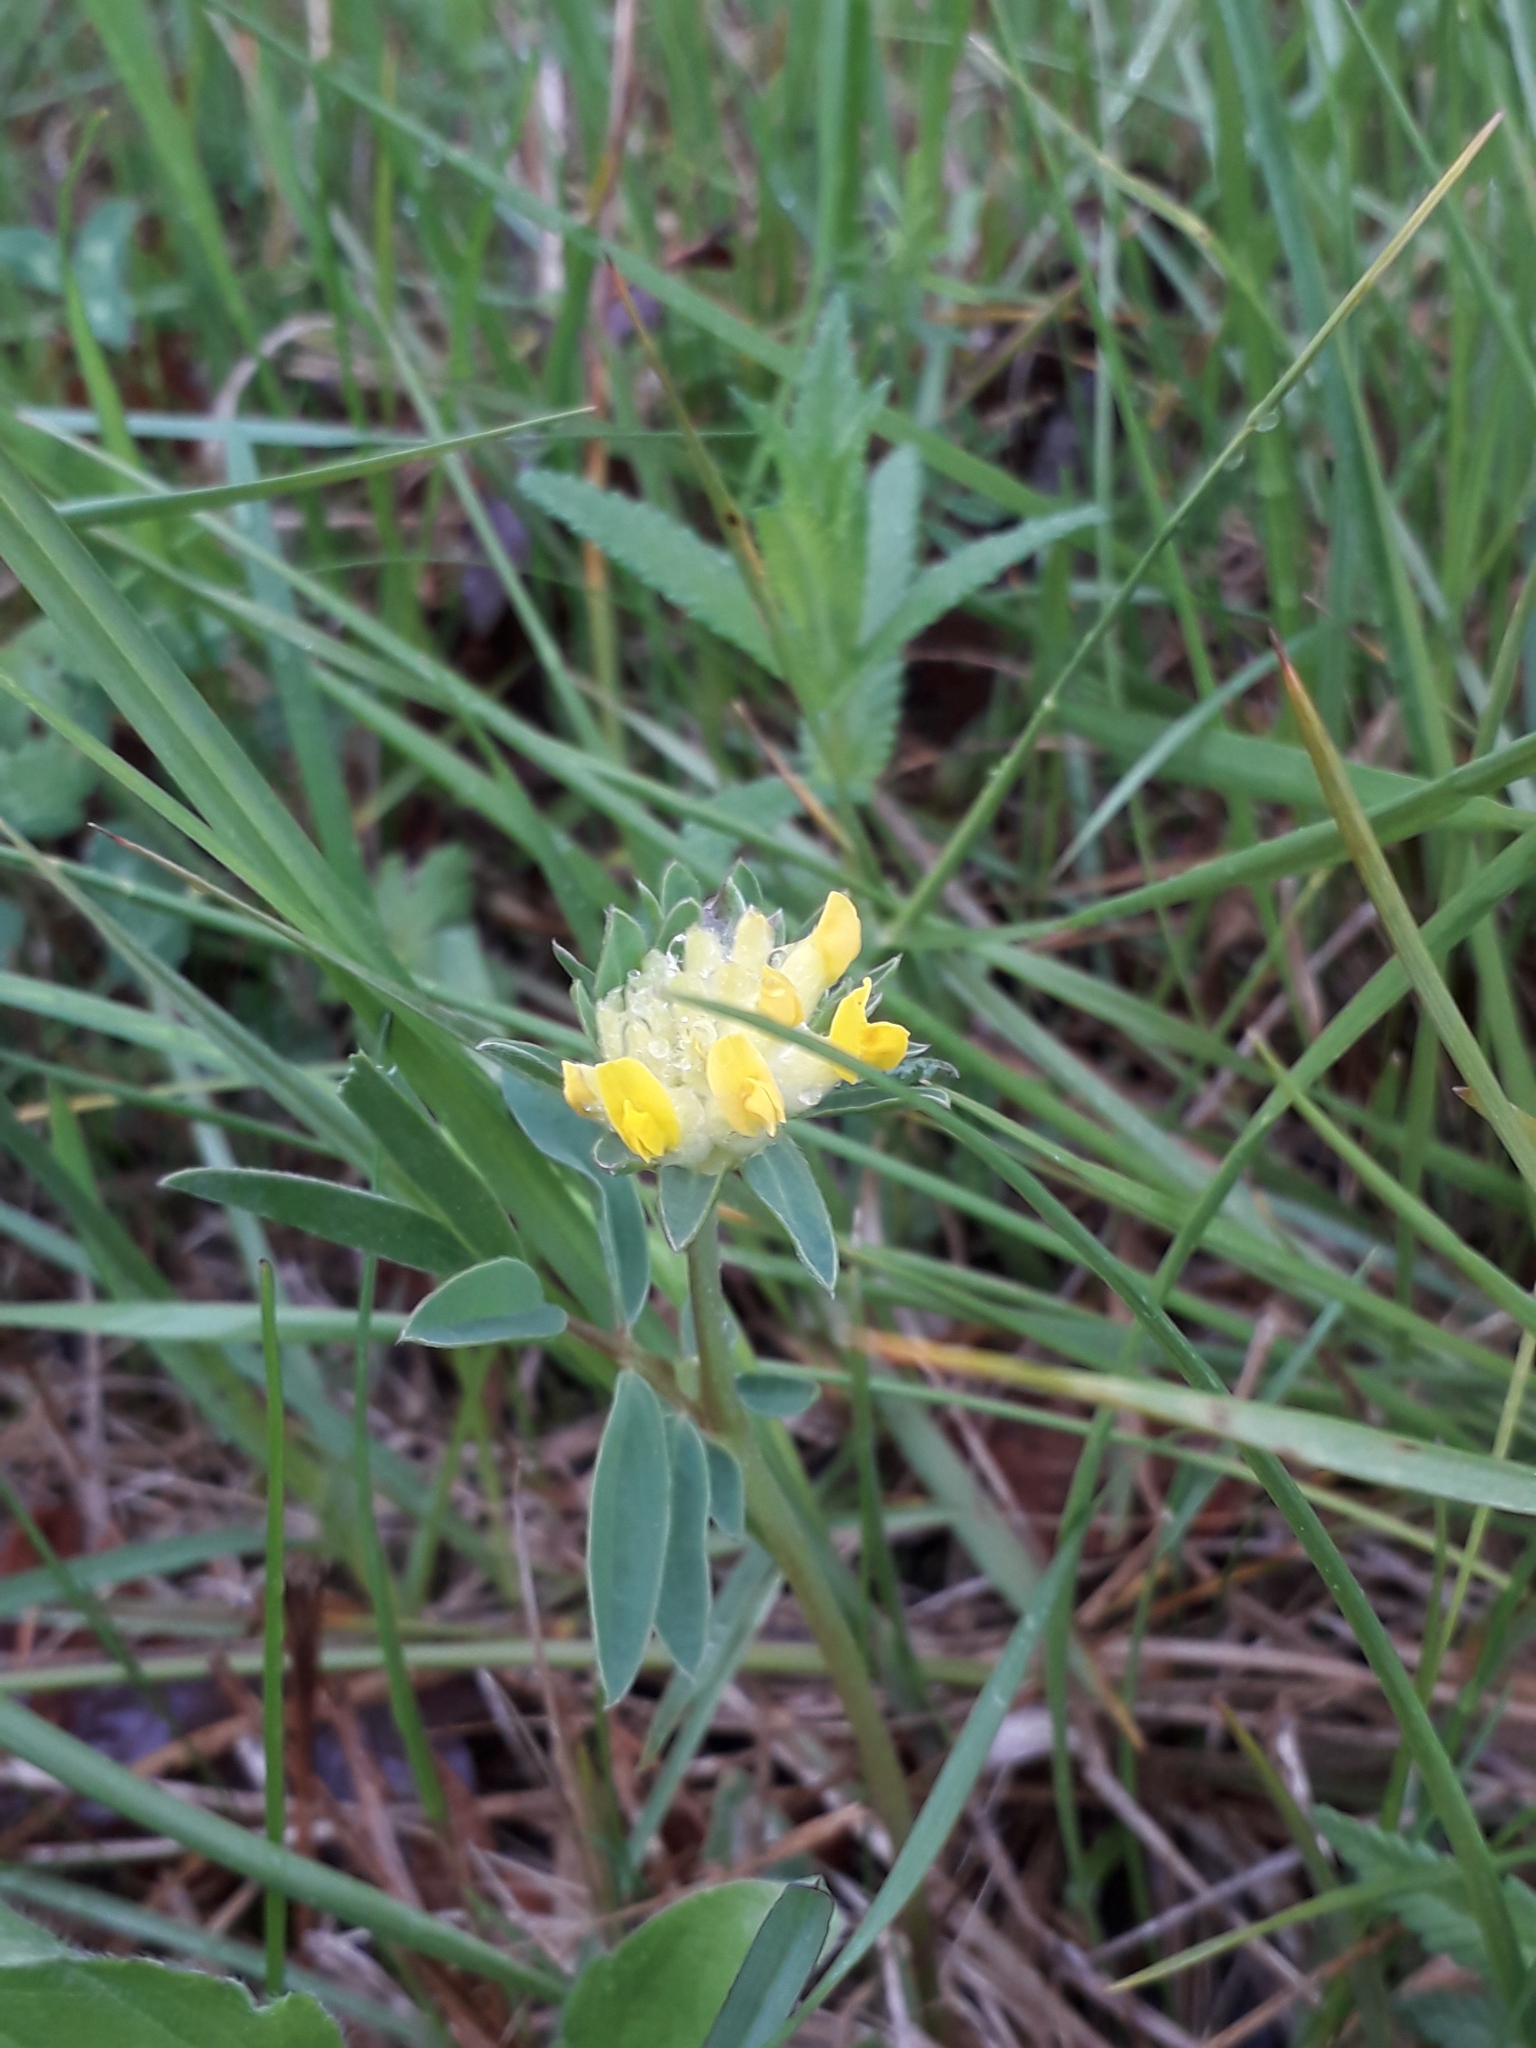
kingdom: Plantae
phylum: Tracheophyta
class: Magnoliopsida
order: Fabales
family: Fabaceae
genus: Anthyllis
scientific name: Anthyllis vulneraria
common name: Kidney vetch
